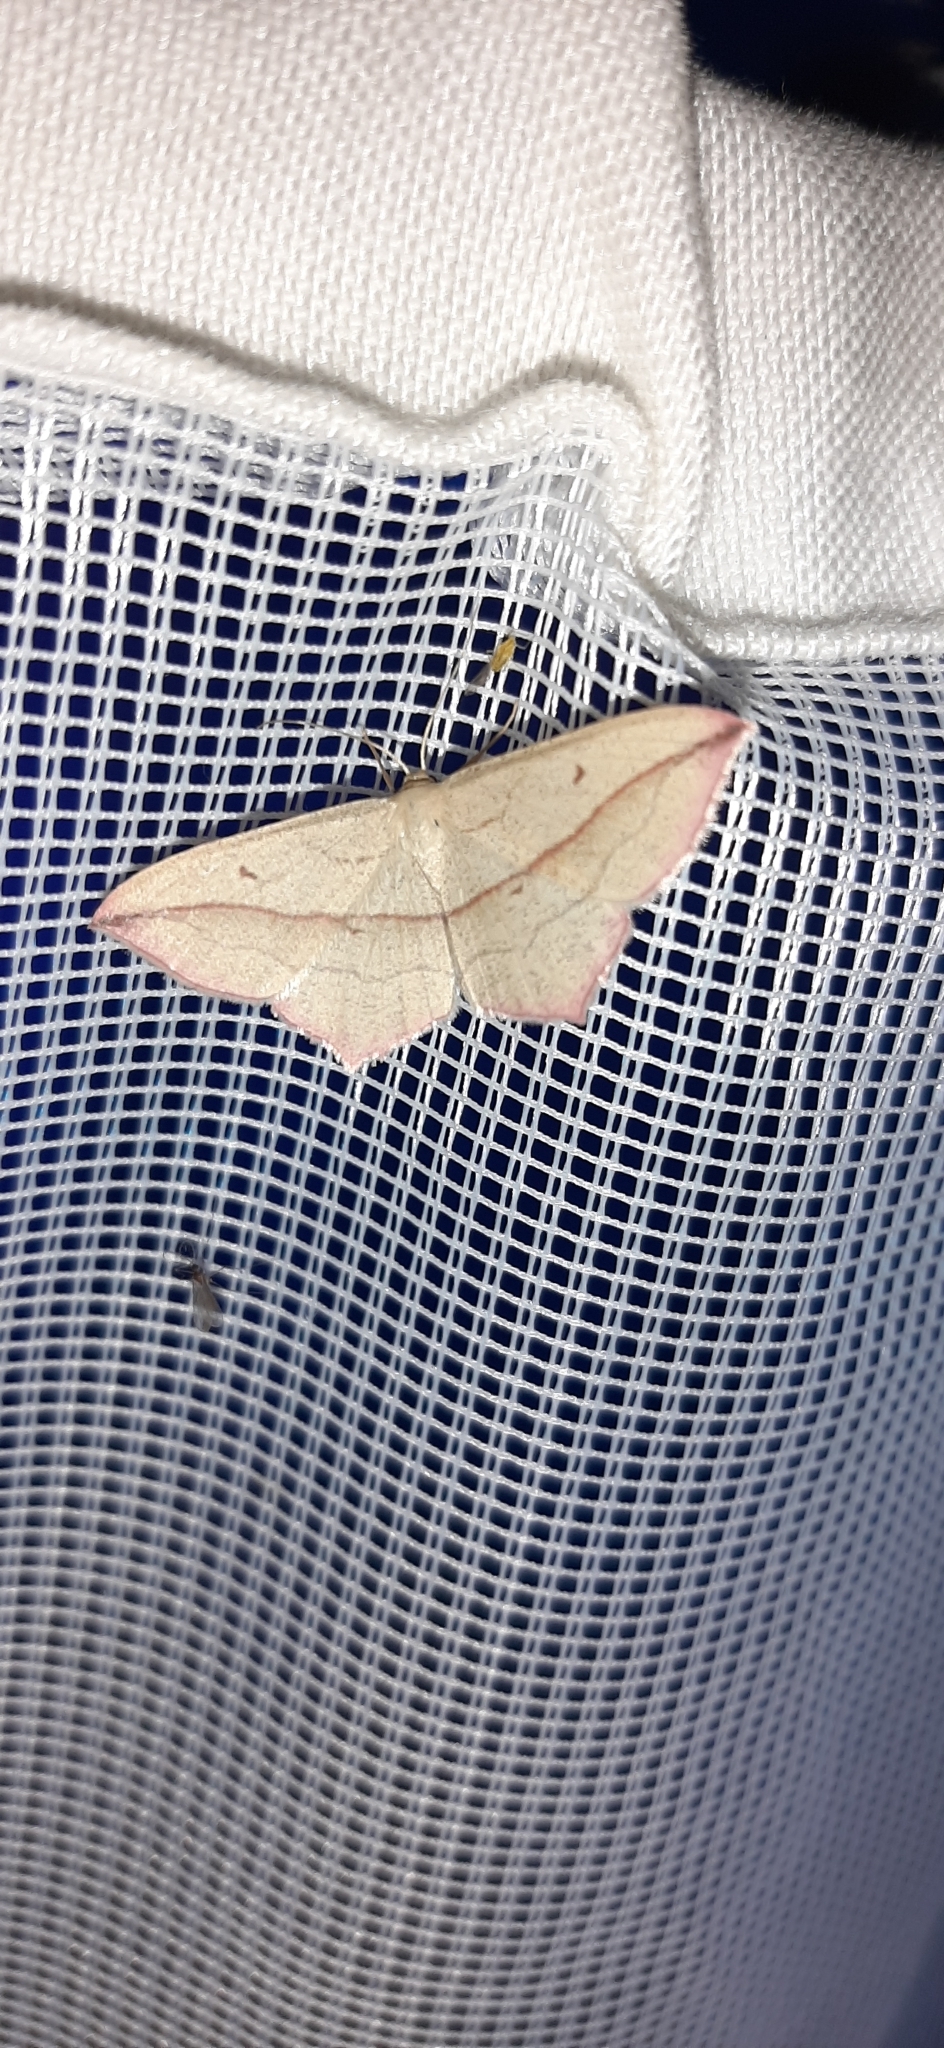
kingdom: Animalia
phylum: Arthropoda
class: Insecta
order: Lepidoptera
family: Geometridae
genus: Timandra
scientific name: Timandra comae
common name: Blood-vein
